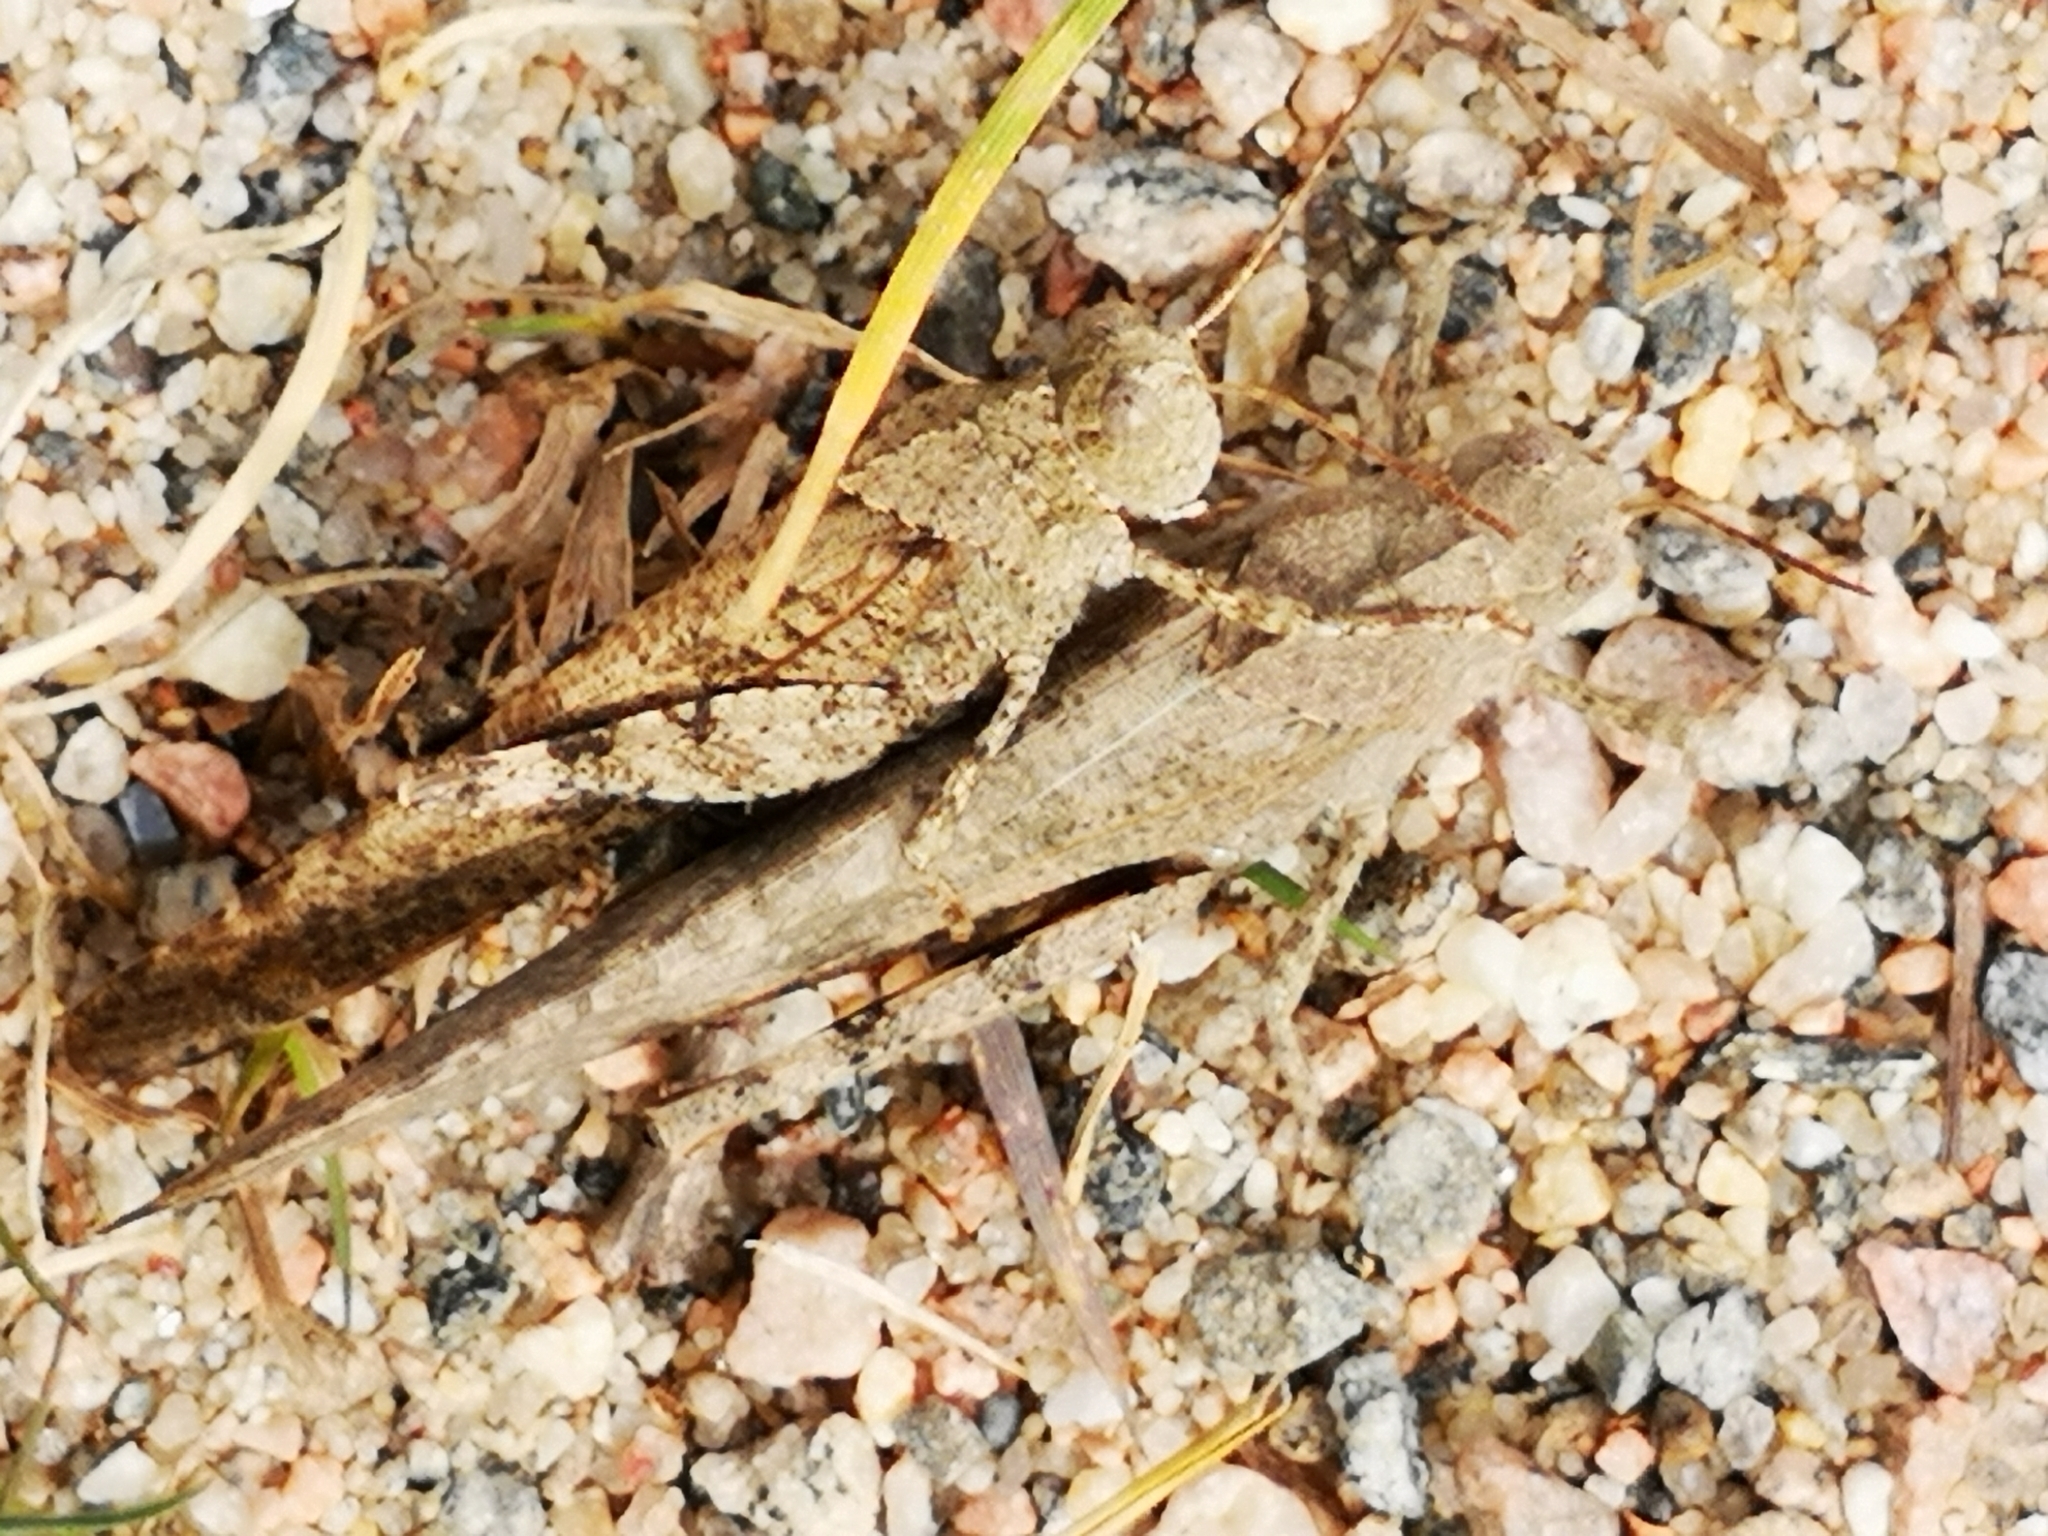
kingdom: Animalia
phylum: Arthropoda
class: Insecta
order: Orthoptera
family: Acrididae
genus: Dissosteira
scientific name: Dissosteira carolina
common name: Carolina grasshopper
